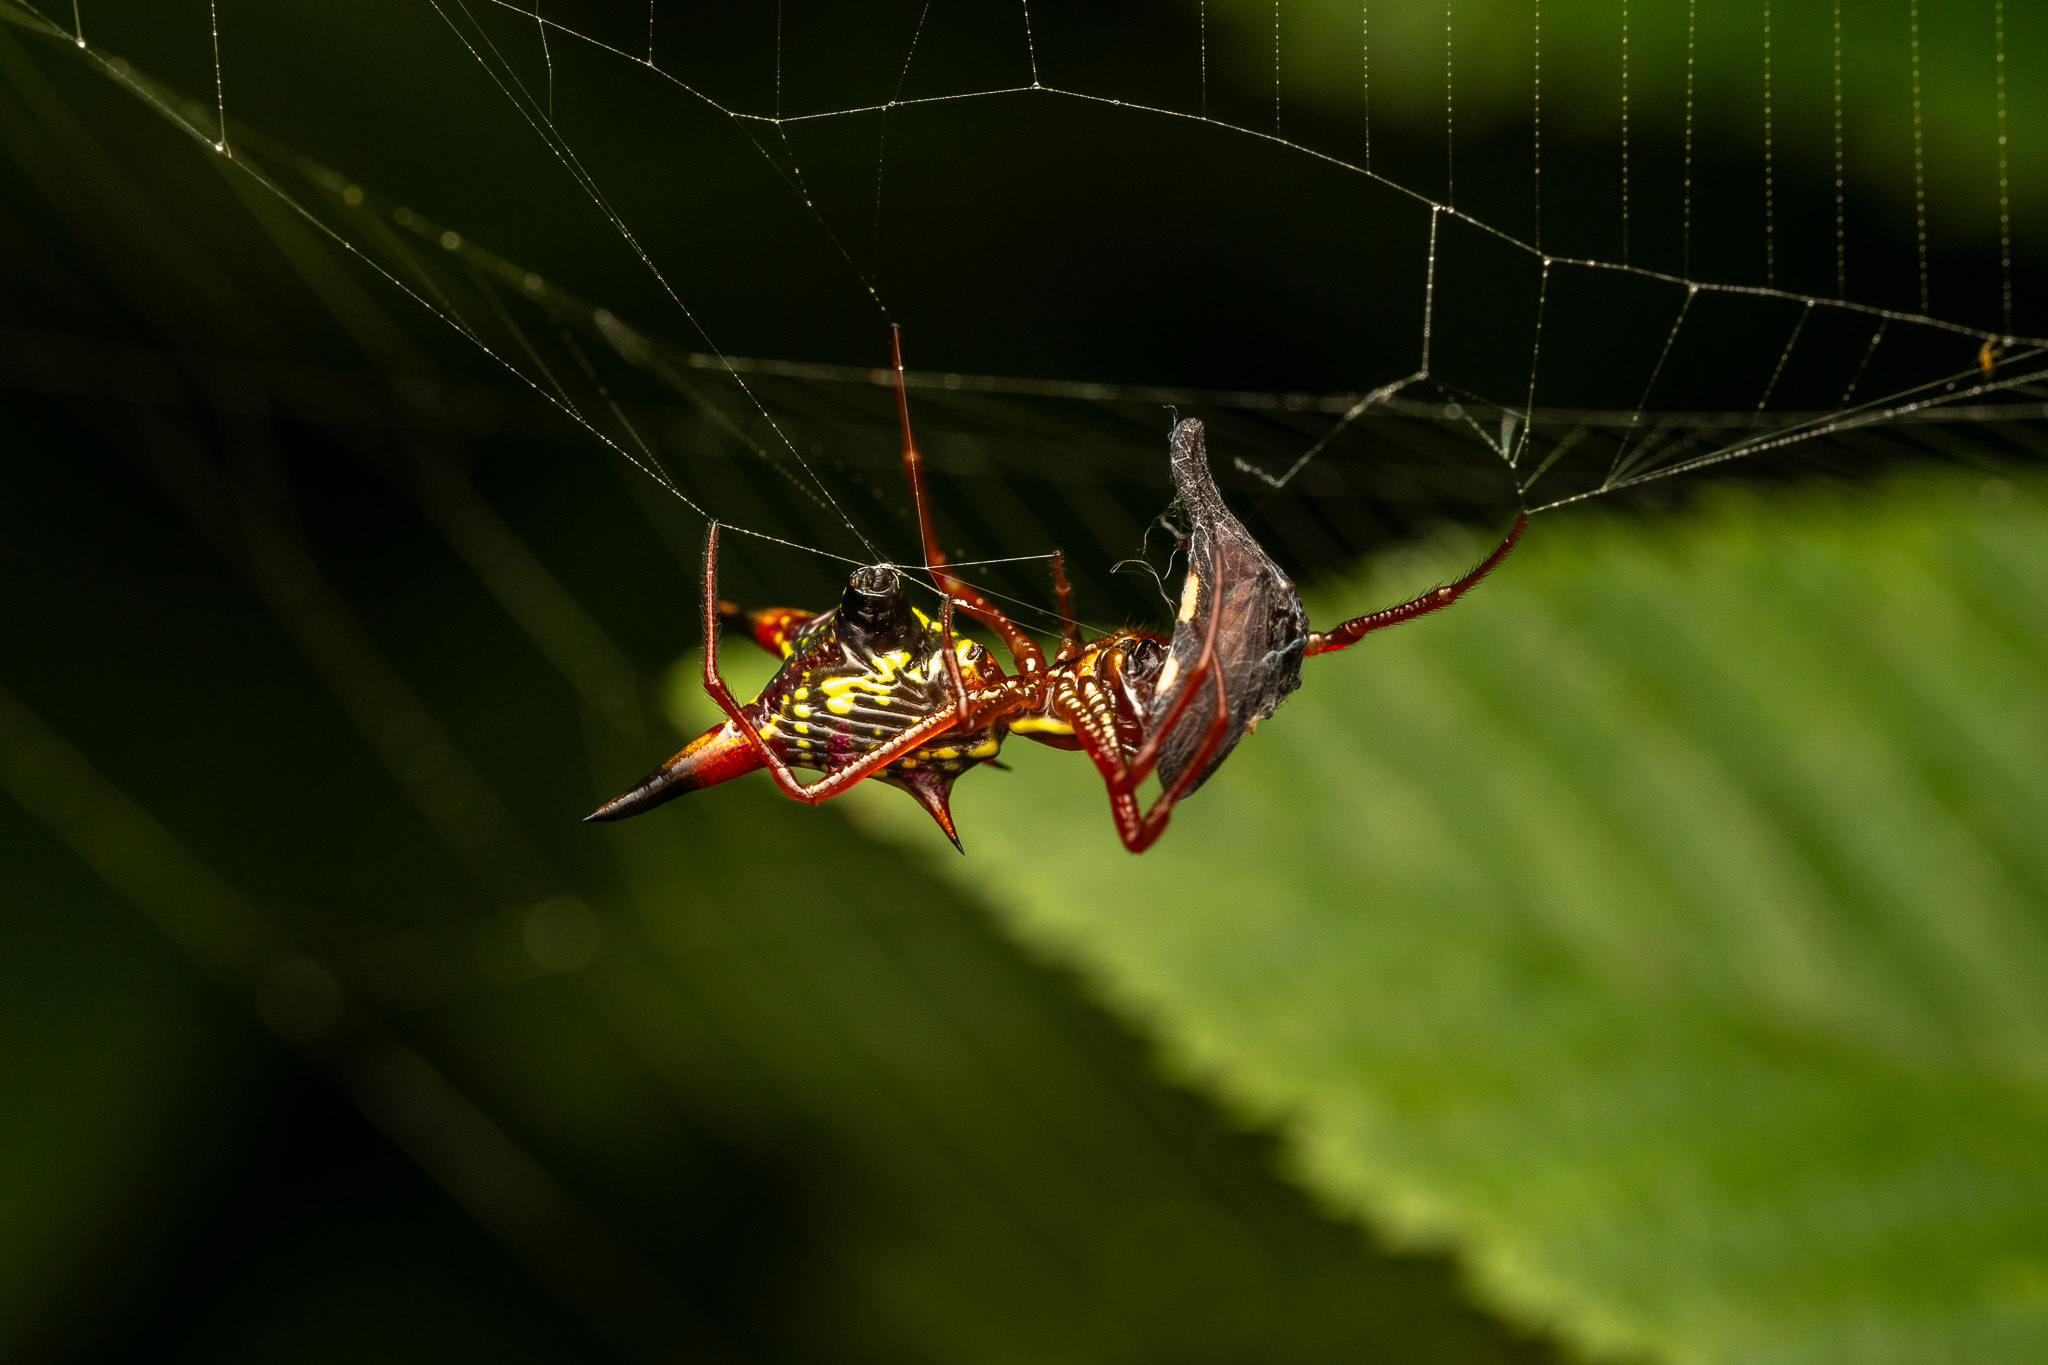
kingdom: Animalia
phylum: Arthropoda
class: Arachnida
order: Araneae
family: Araneidae
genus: Micrathena
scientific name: Micrathena sagittata
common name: Orb weavers
